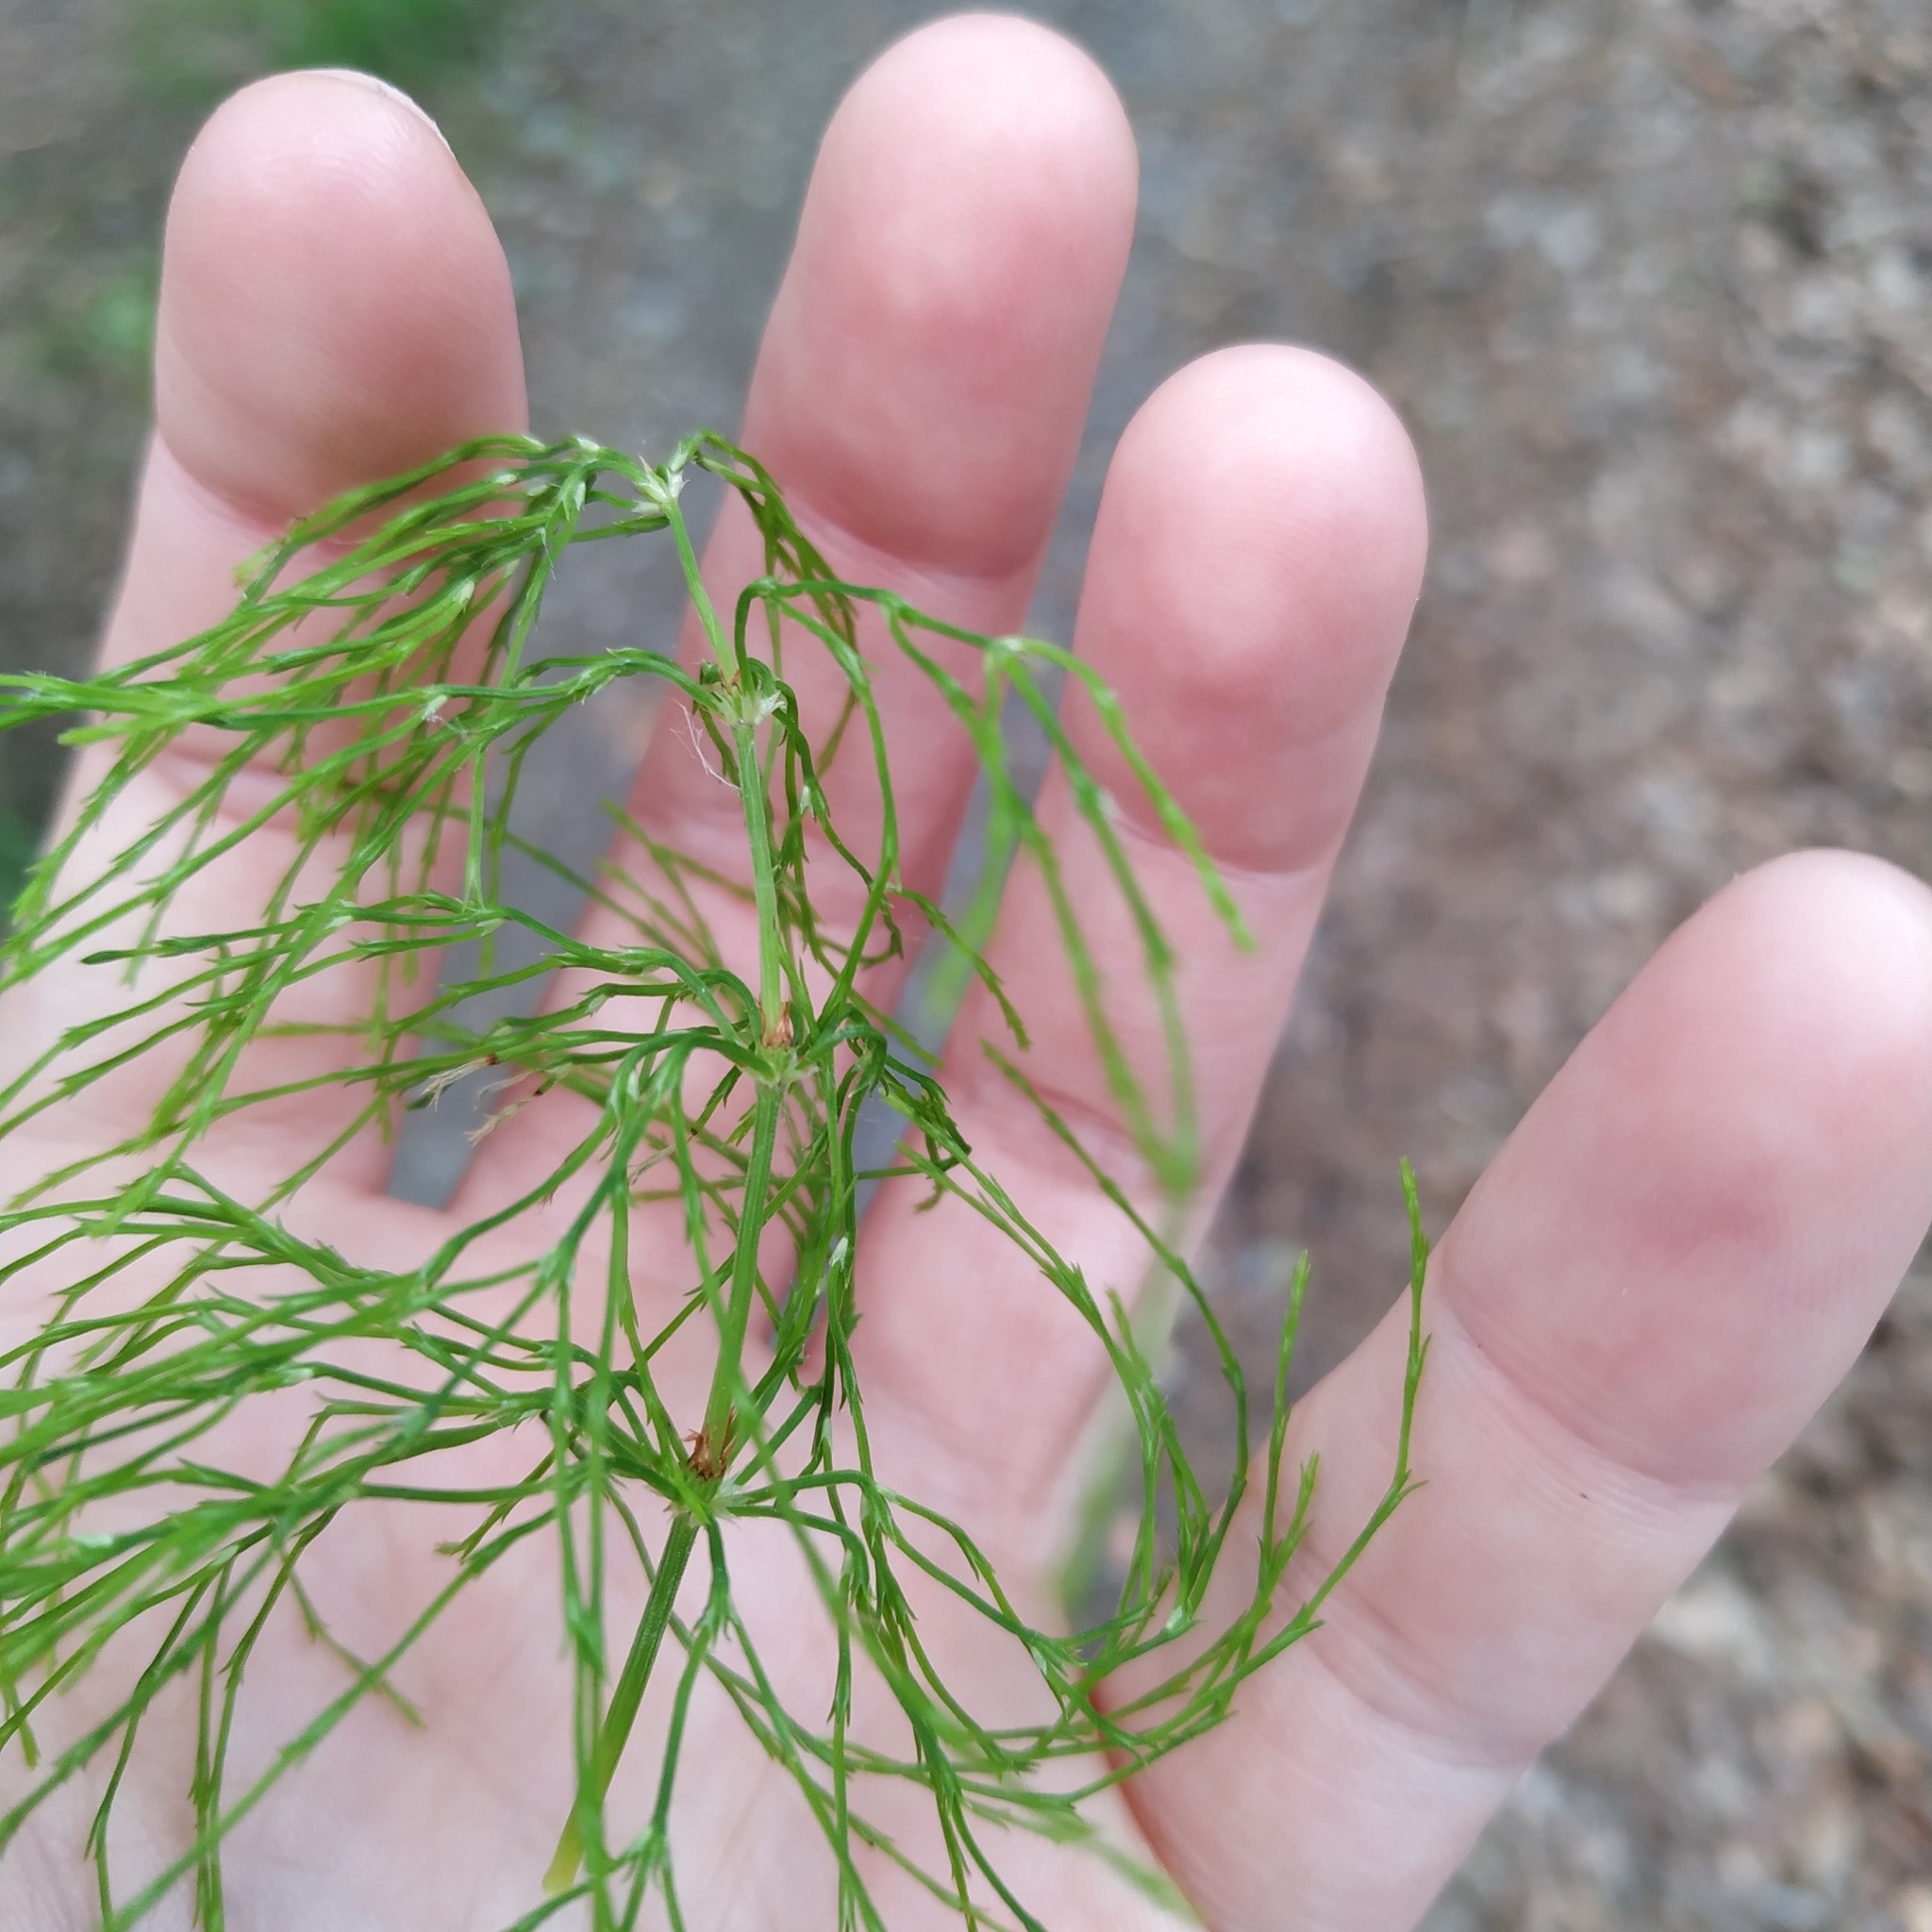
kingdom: Plantae
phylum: Tracheophyta
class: Polypodiopsida
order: Equisetales
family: Equisetaceae
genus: Equisetum
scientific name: Equisetum sylvaticum
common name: Wood horsetail
